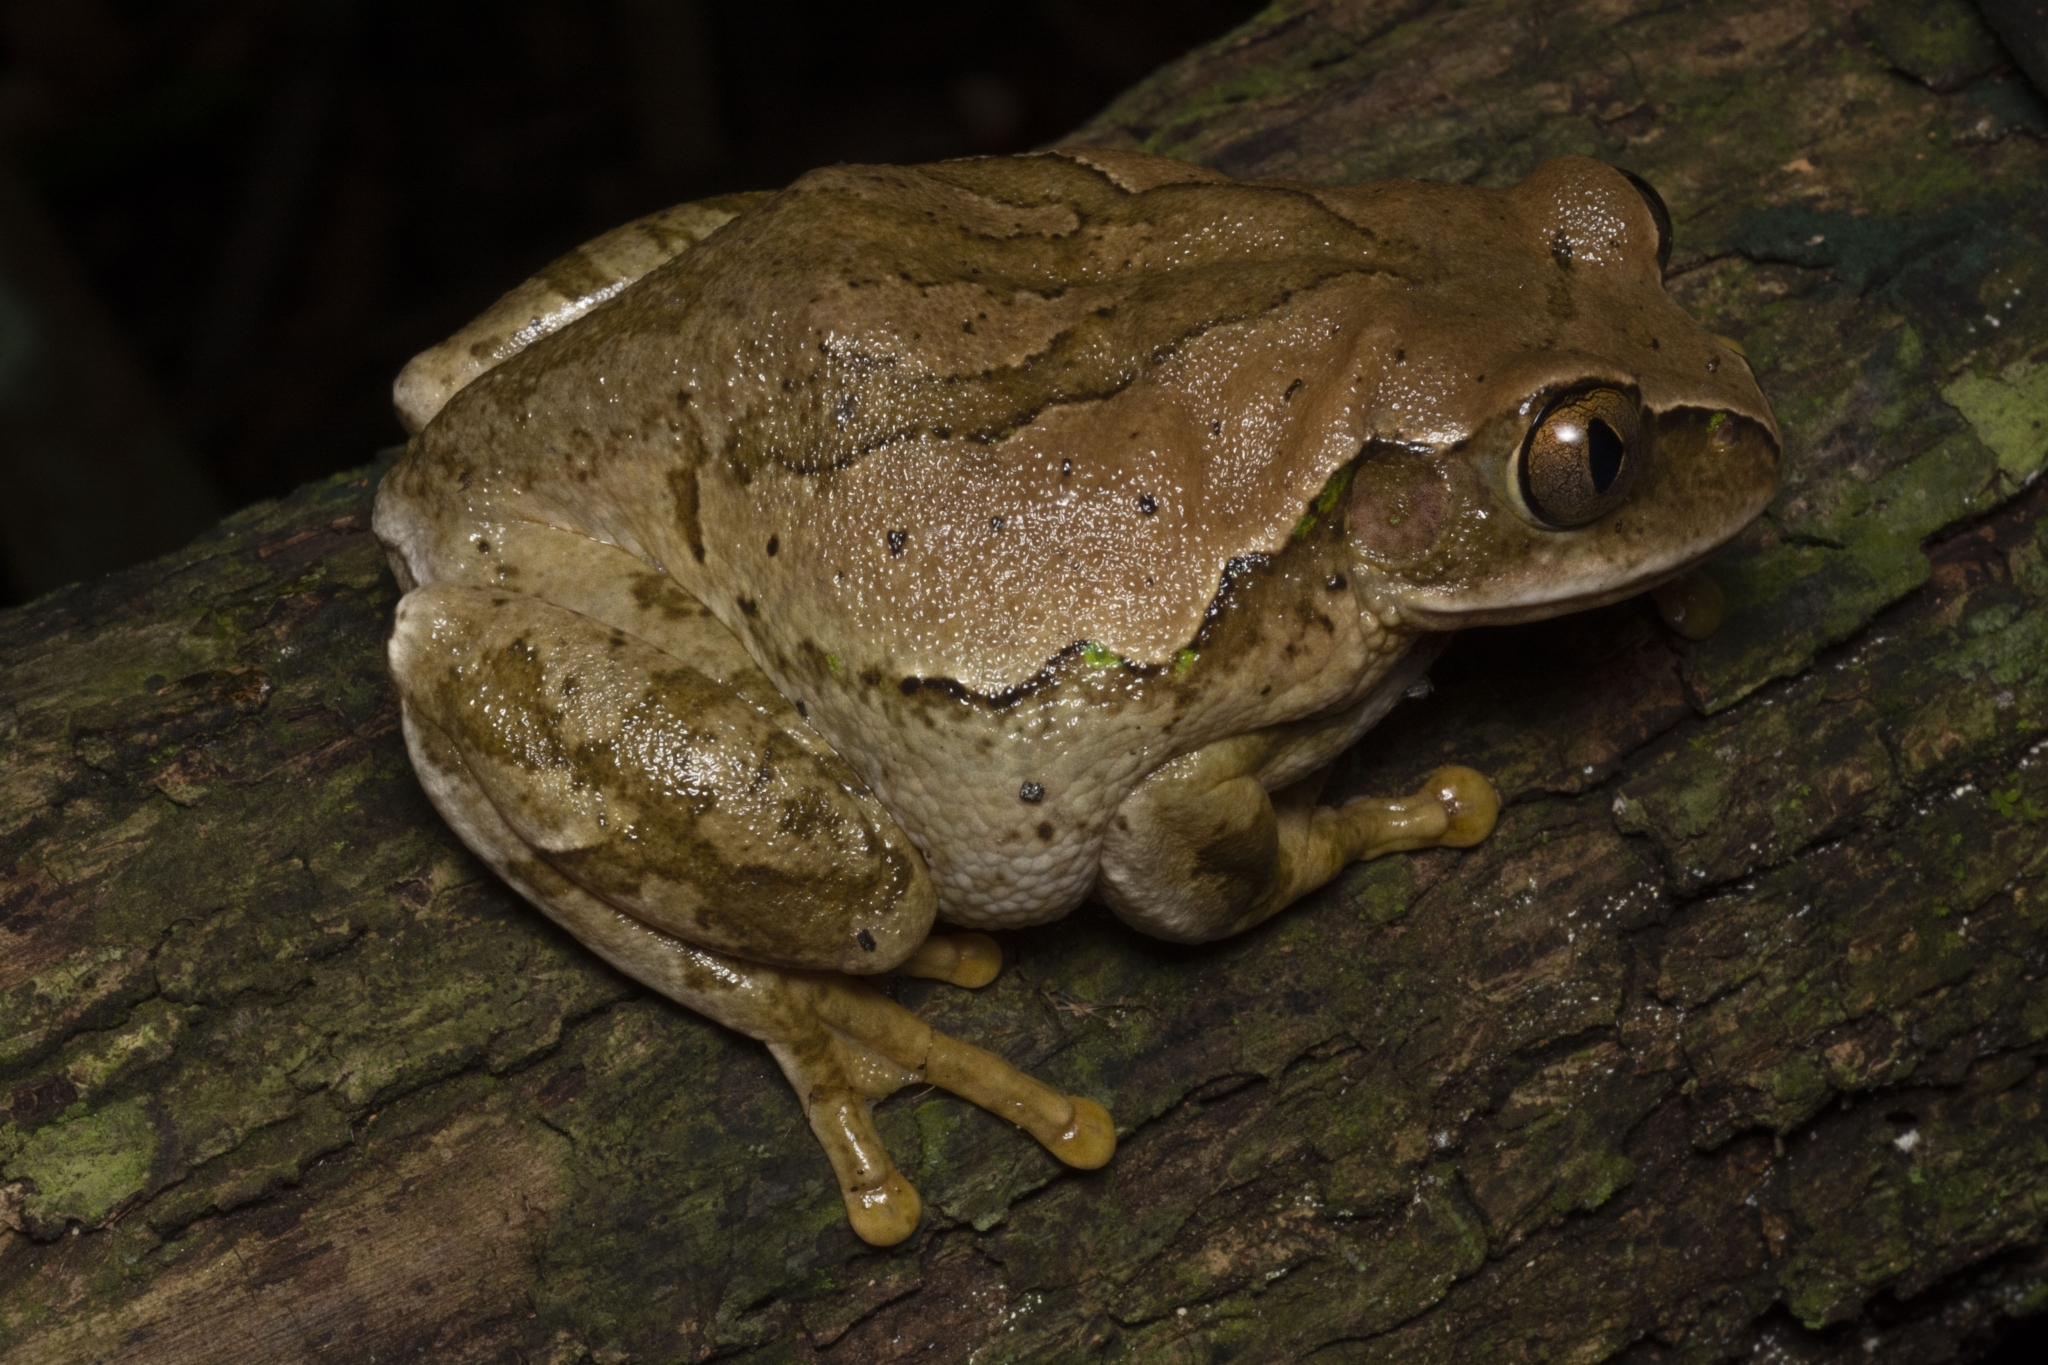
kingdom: Animalia
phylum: Chordata
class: Amphibia
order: Anura
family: Arthroleptidae
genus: Leptopelis
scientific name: Leptopelis flavomaculatus
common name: Johnston's treefrog
